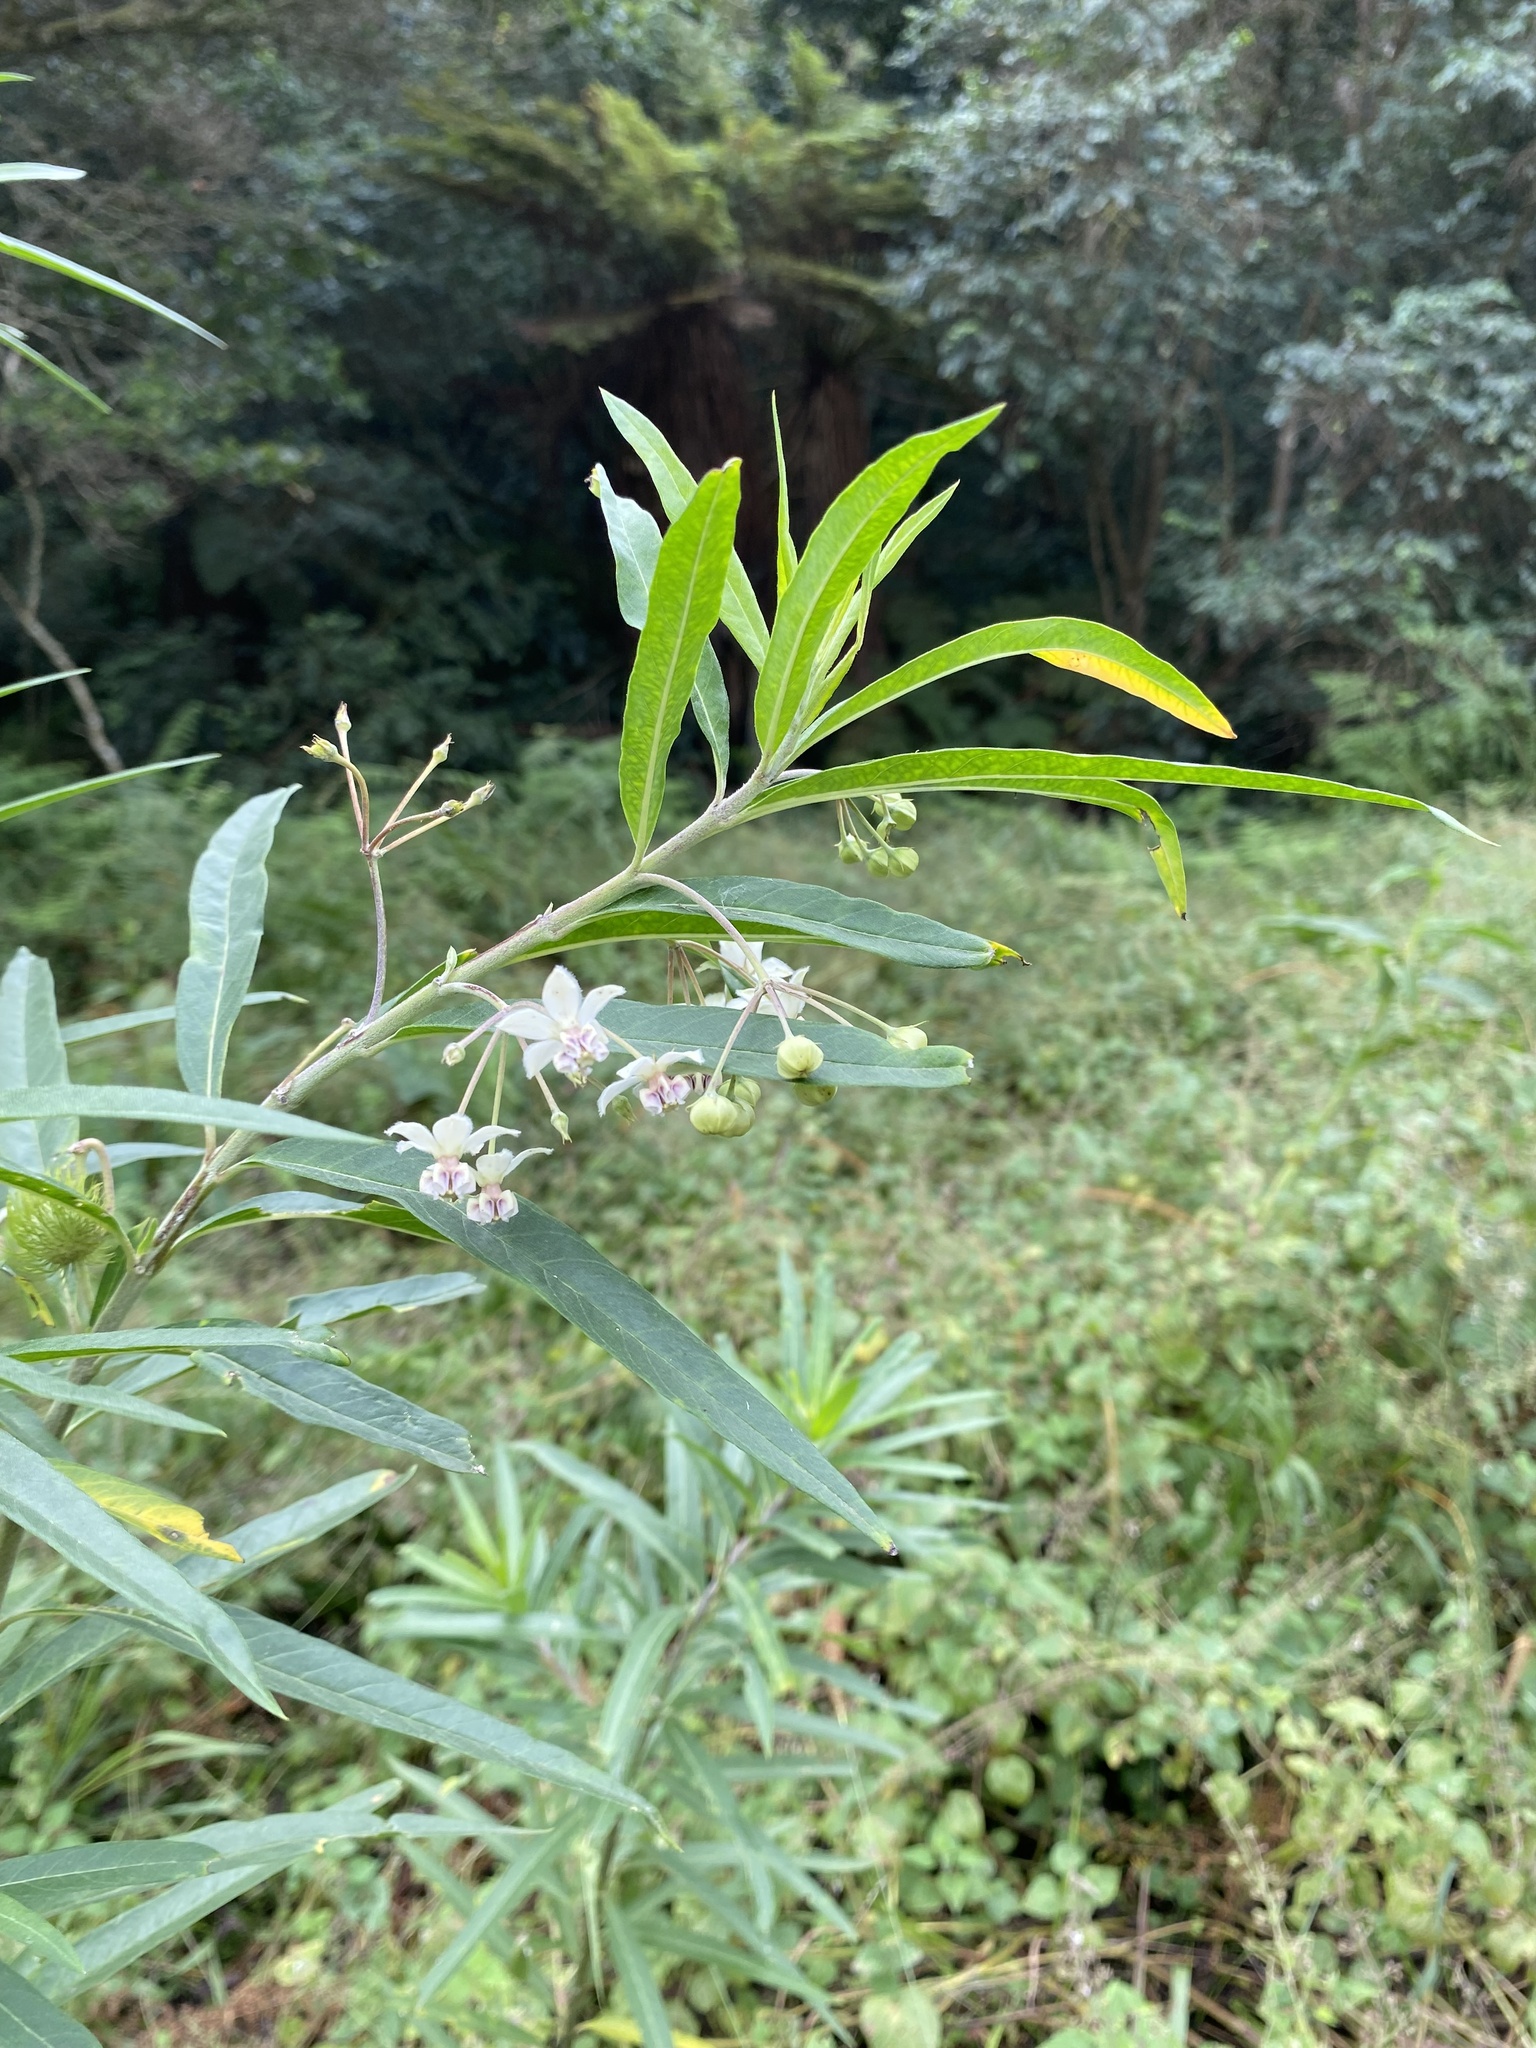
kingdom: Plantae
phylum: Tracheophyta
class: Magnoliopsida
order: Gentianales
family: Apocynaceae
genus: Gomphocarpus
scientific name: Gomphocarpus physocarpus
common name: Balloon cotton bush
